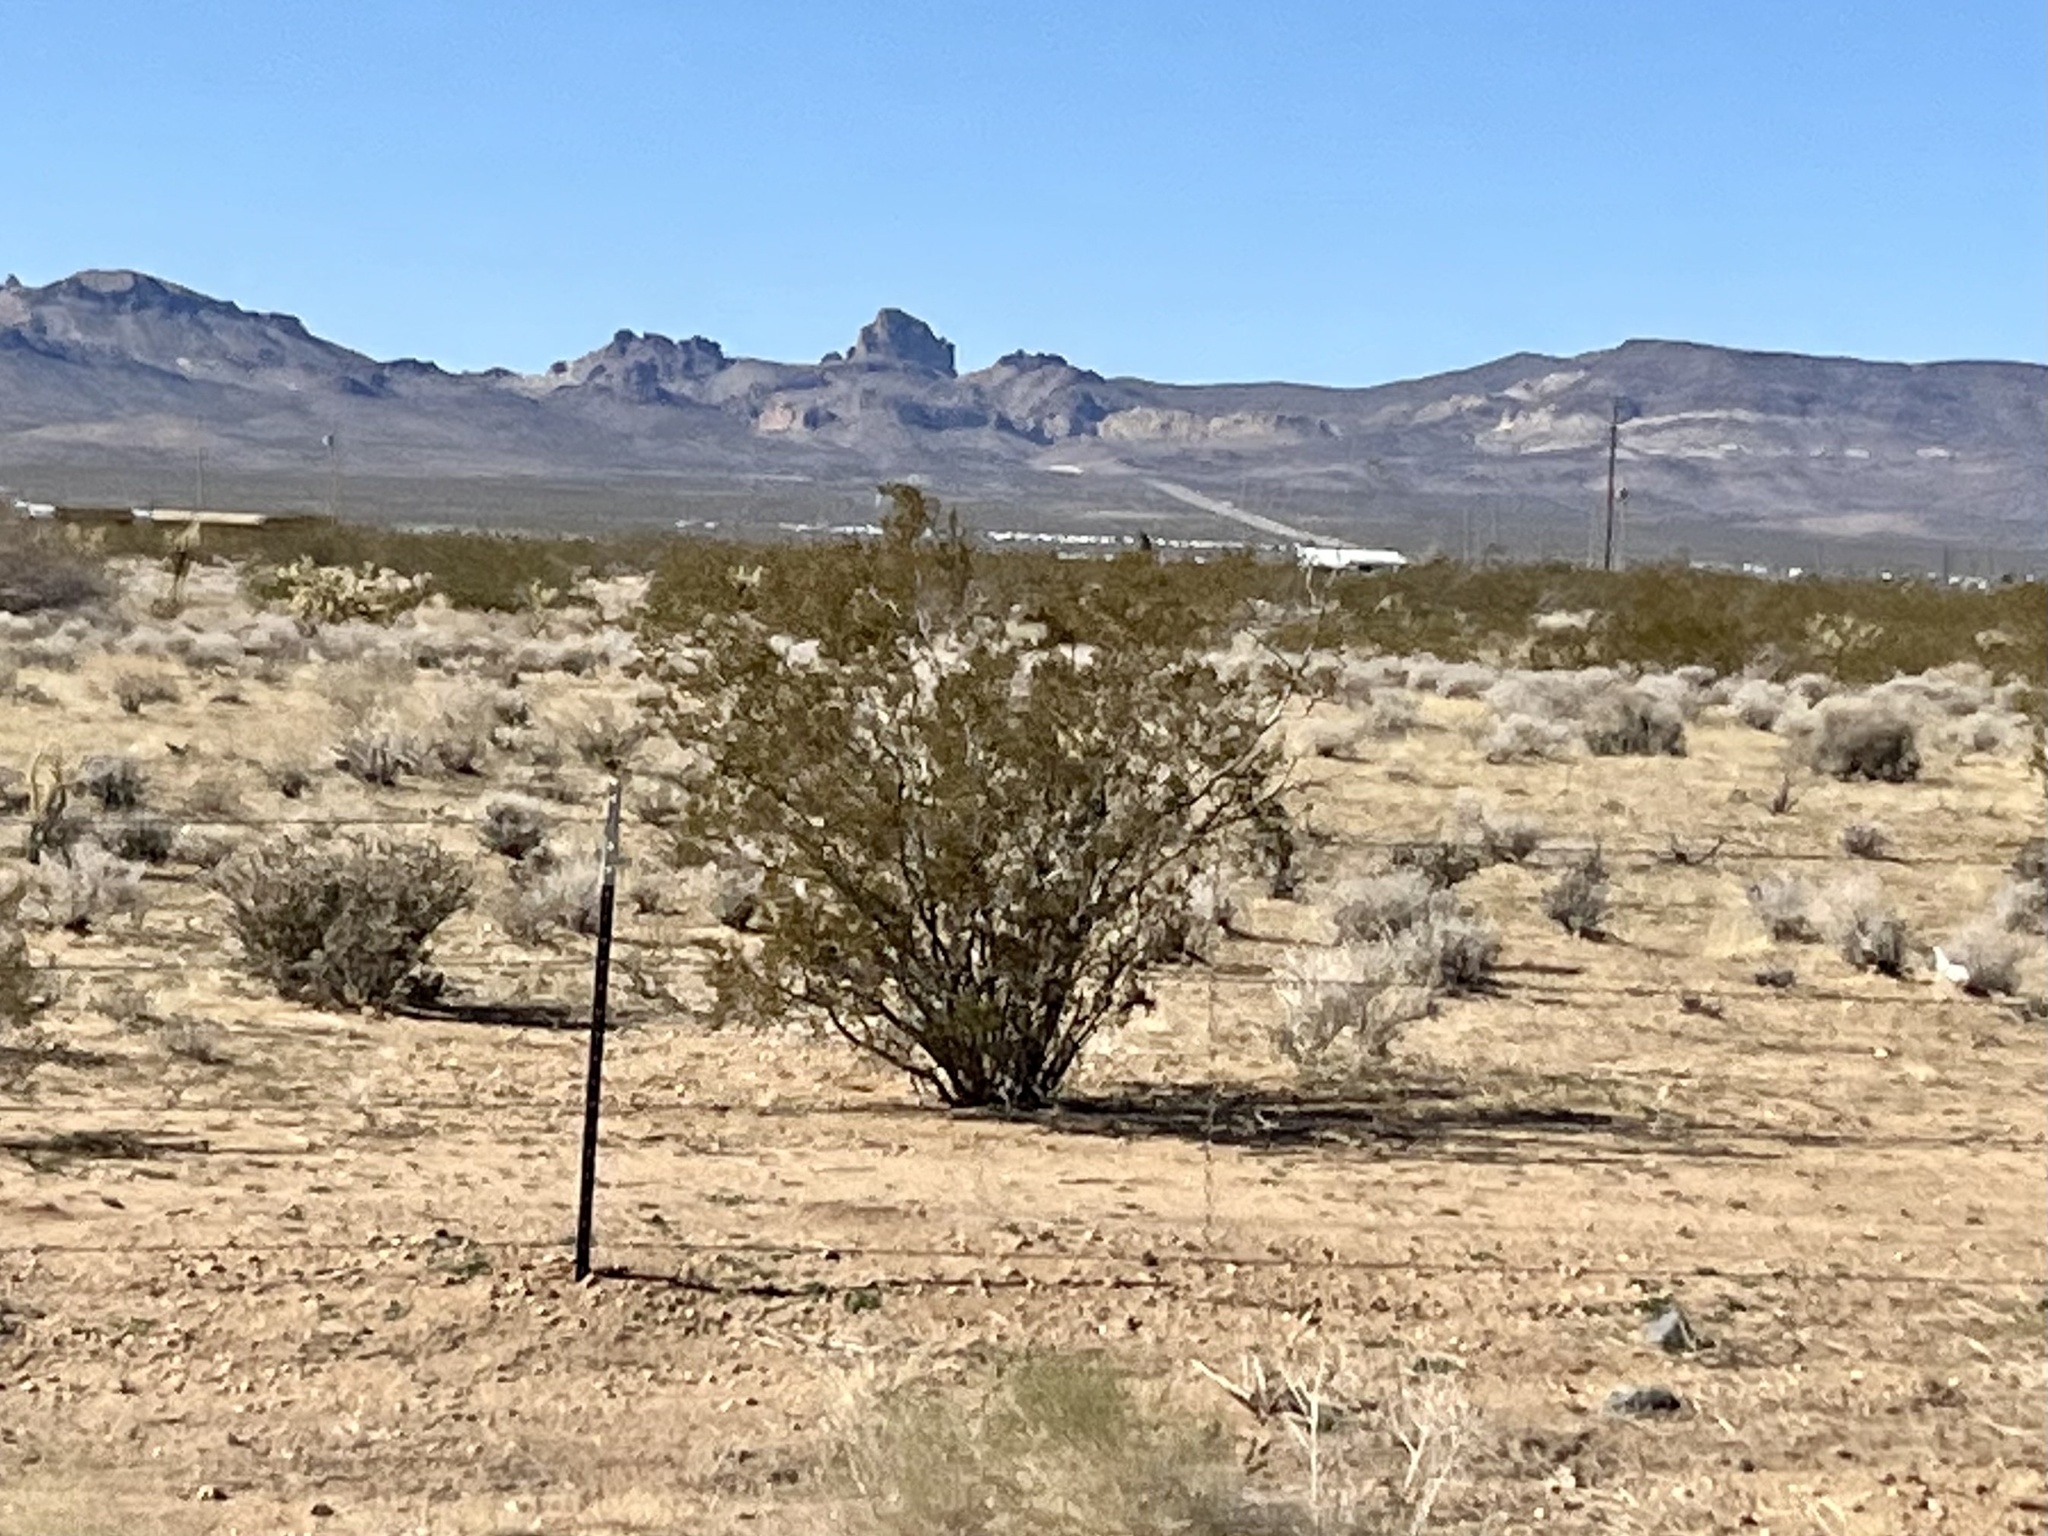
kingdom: Plantae
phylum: Tracheophyta
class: Magnoliopsida
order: Zygophyllales
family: Zygophyllaceae
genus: Larrea
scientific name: Larrea tridentata
